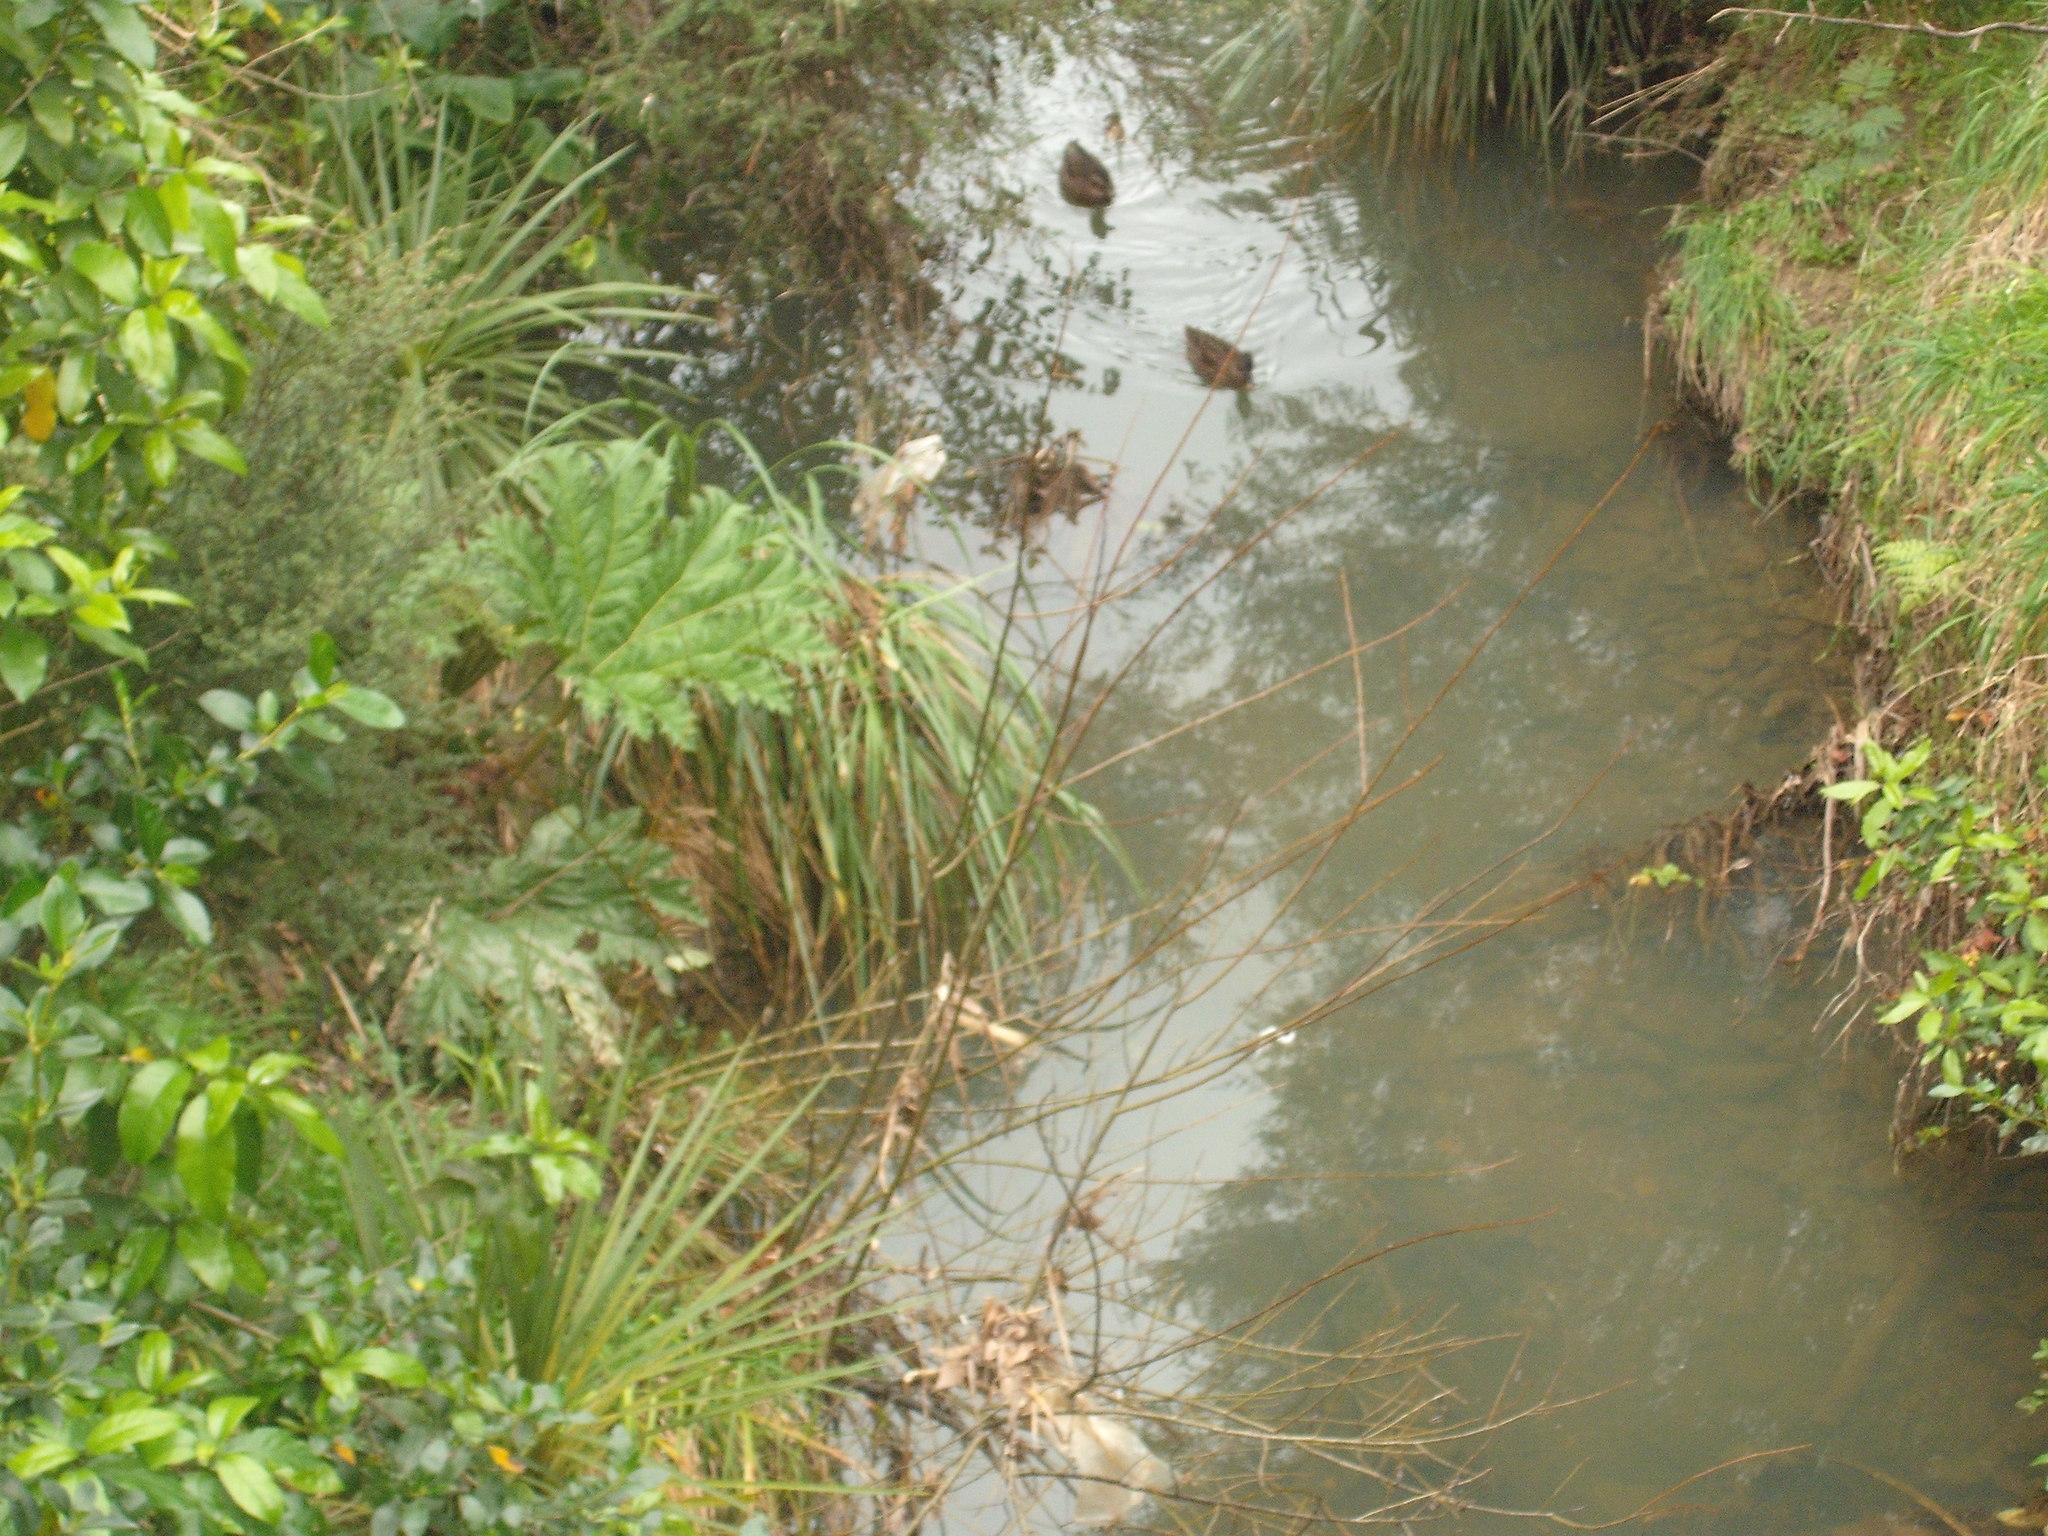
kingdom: Plantae
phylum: Tracheophyta
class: Magnoliopsida
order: Gunnerales
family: Gunneraceae
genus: Gunnera
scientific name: Gunnera tinctoria
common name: Giant-rhubarb
